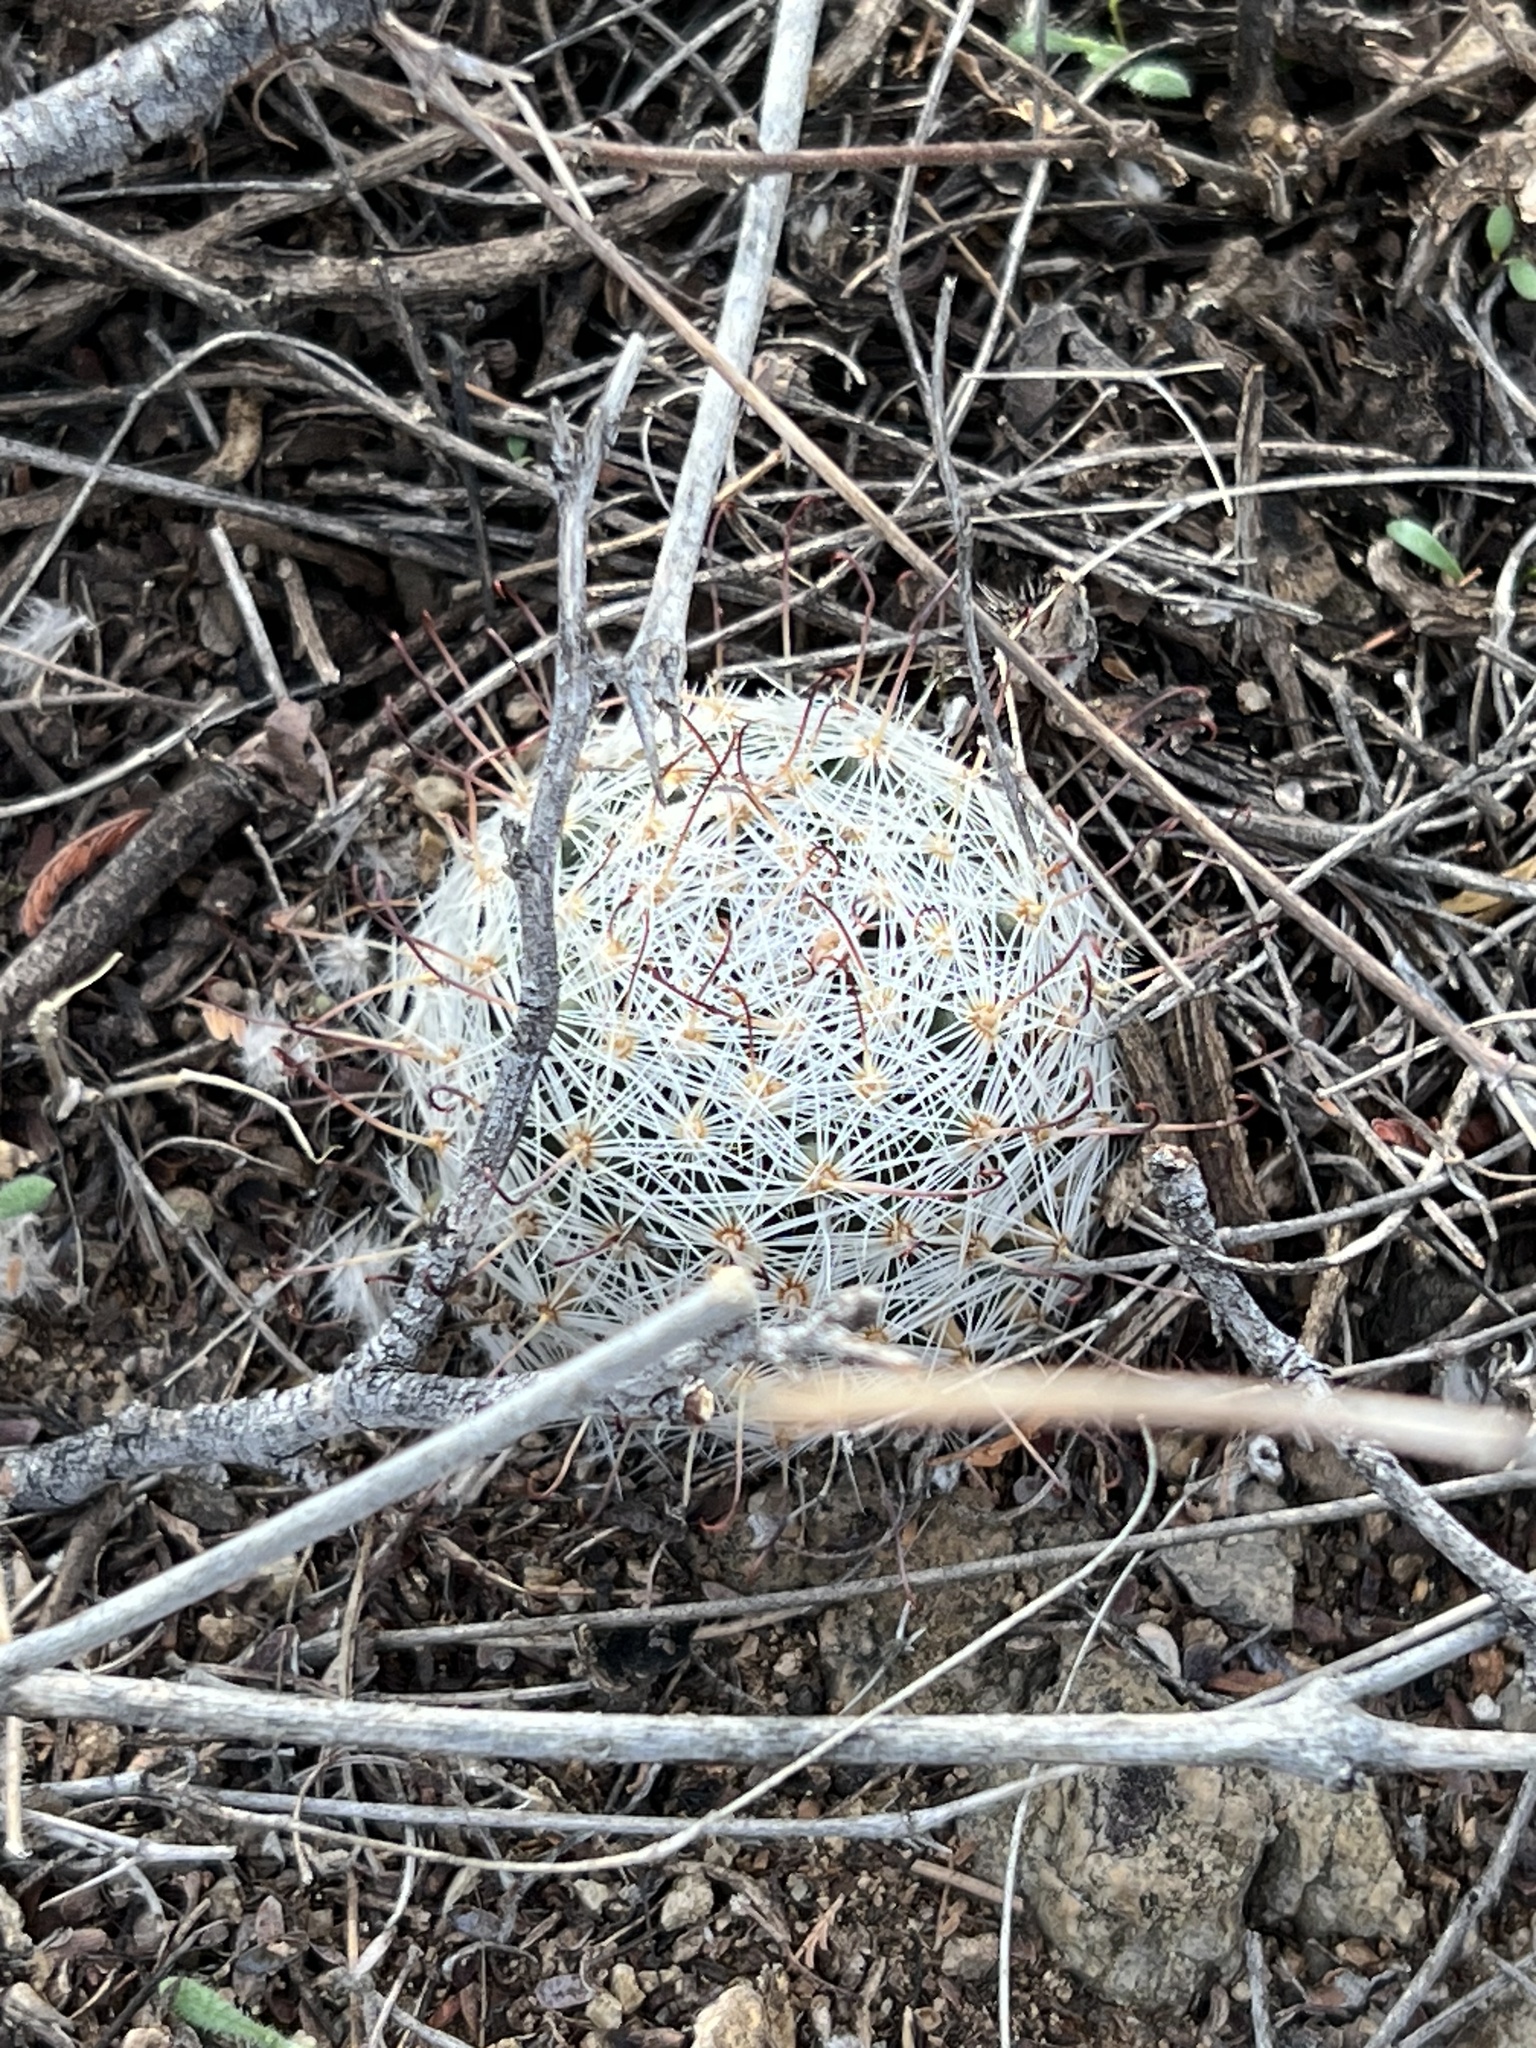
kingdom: Plantae
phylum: Tracheophyta
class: Magnoliopsida
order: Caryophyllales
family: Cactaceae
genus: Cochemiea
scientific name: Cochemiea grahamii
